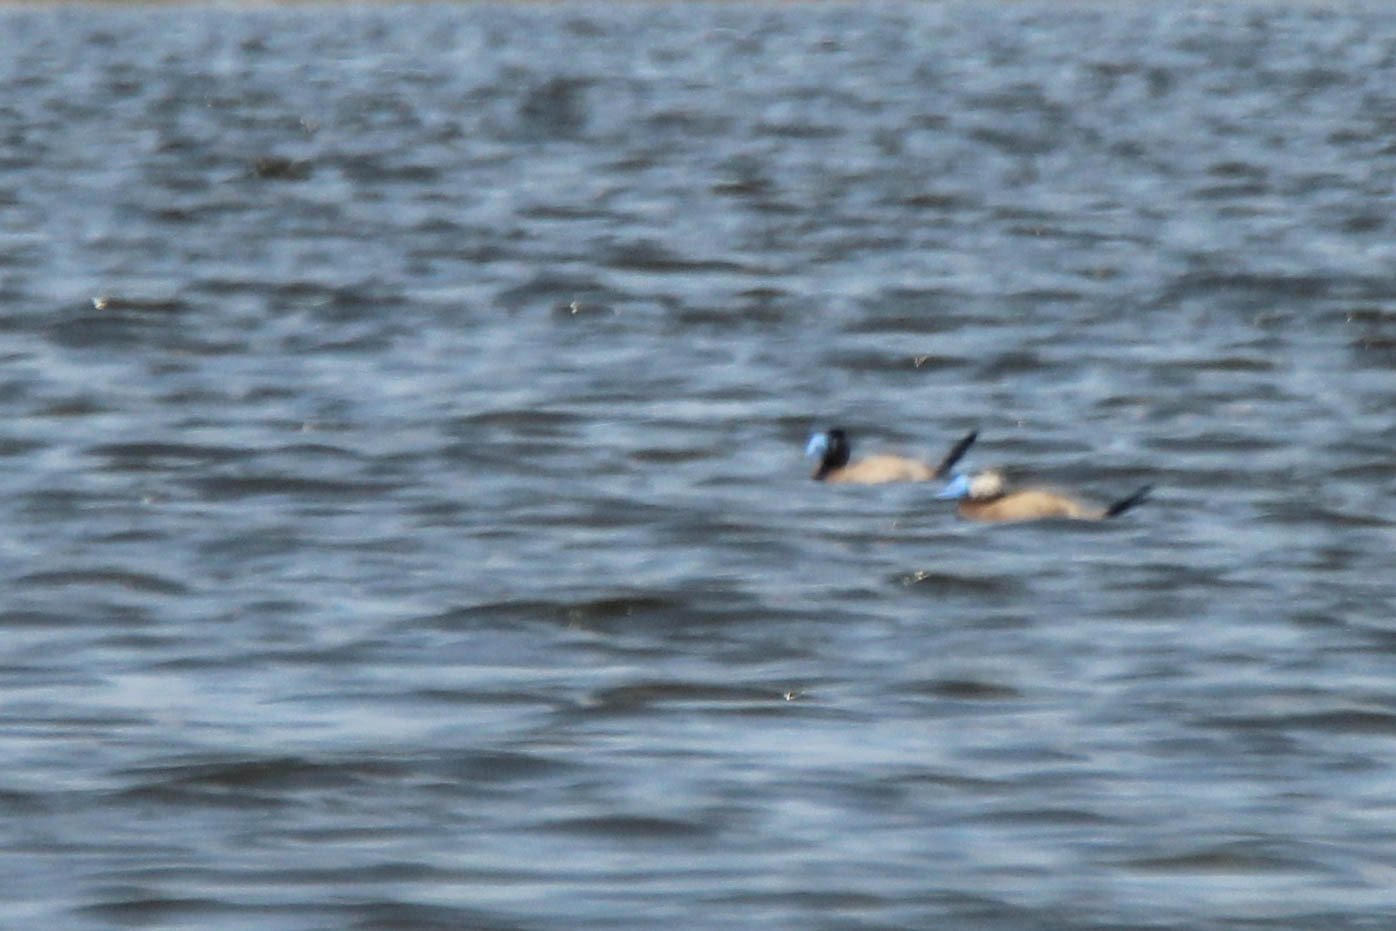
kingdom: Animalia
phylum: Chordata
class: Aves
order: Anseriformes
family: Anatidae
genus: Oxyura
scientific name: Oxyura leucocephala
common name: White-headed duck
